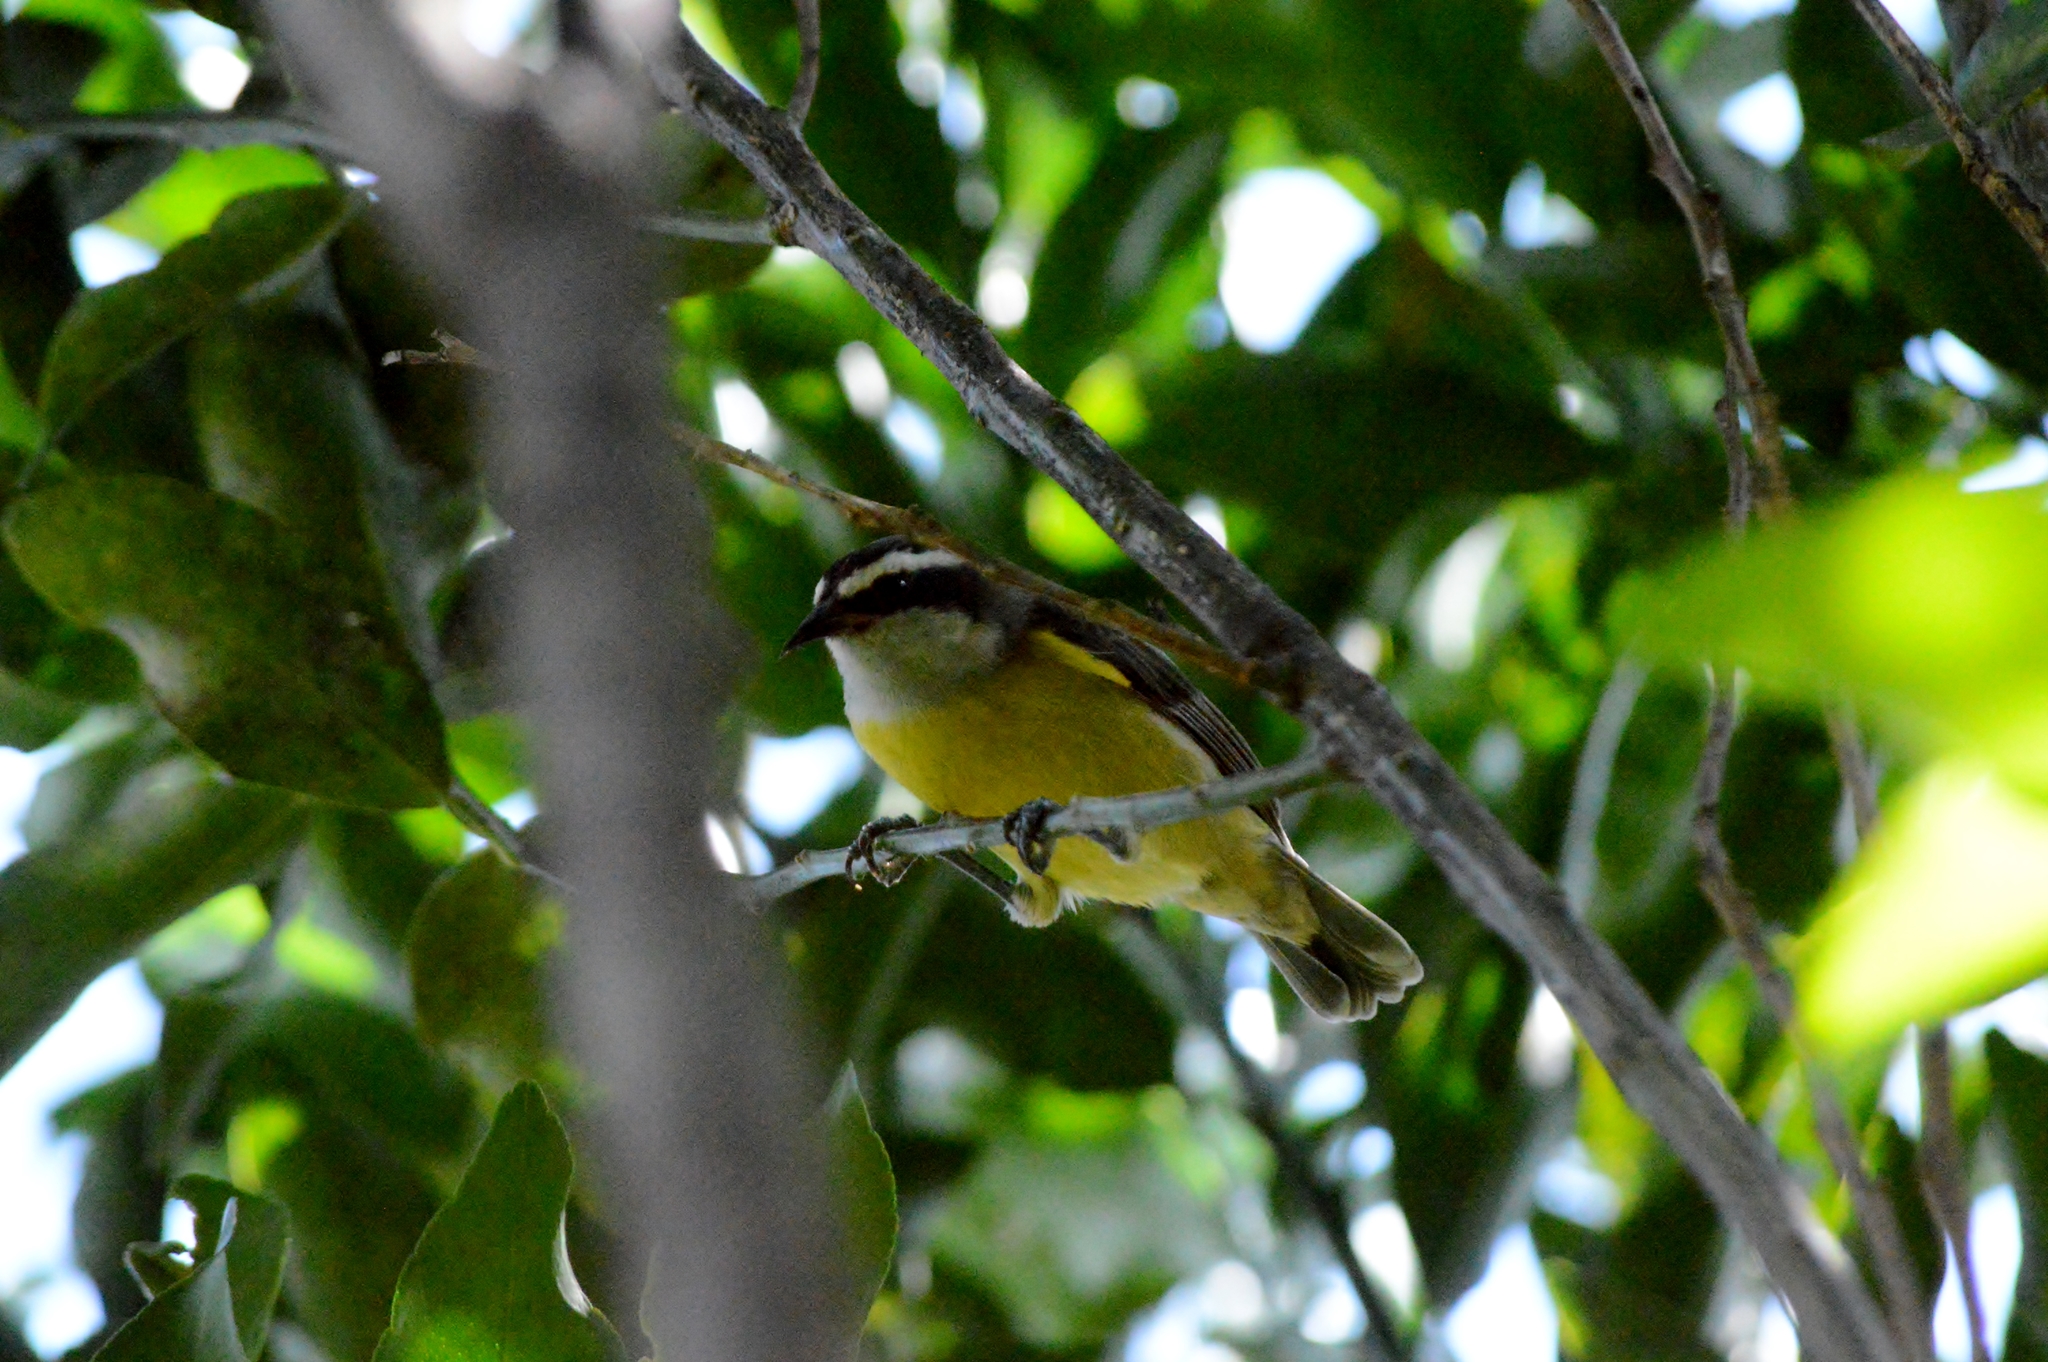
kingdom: Animalia
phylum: Chordata
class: Aves
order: Passeriformes
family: Thraupidae
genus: Coereba
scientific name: Coereba flaveola
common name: Bananaquit
